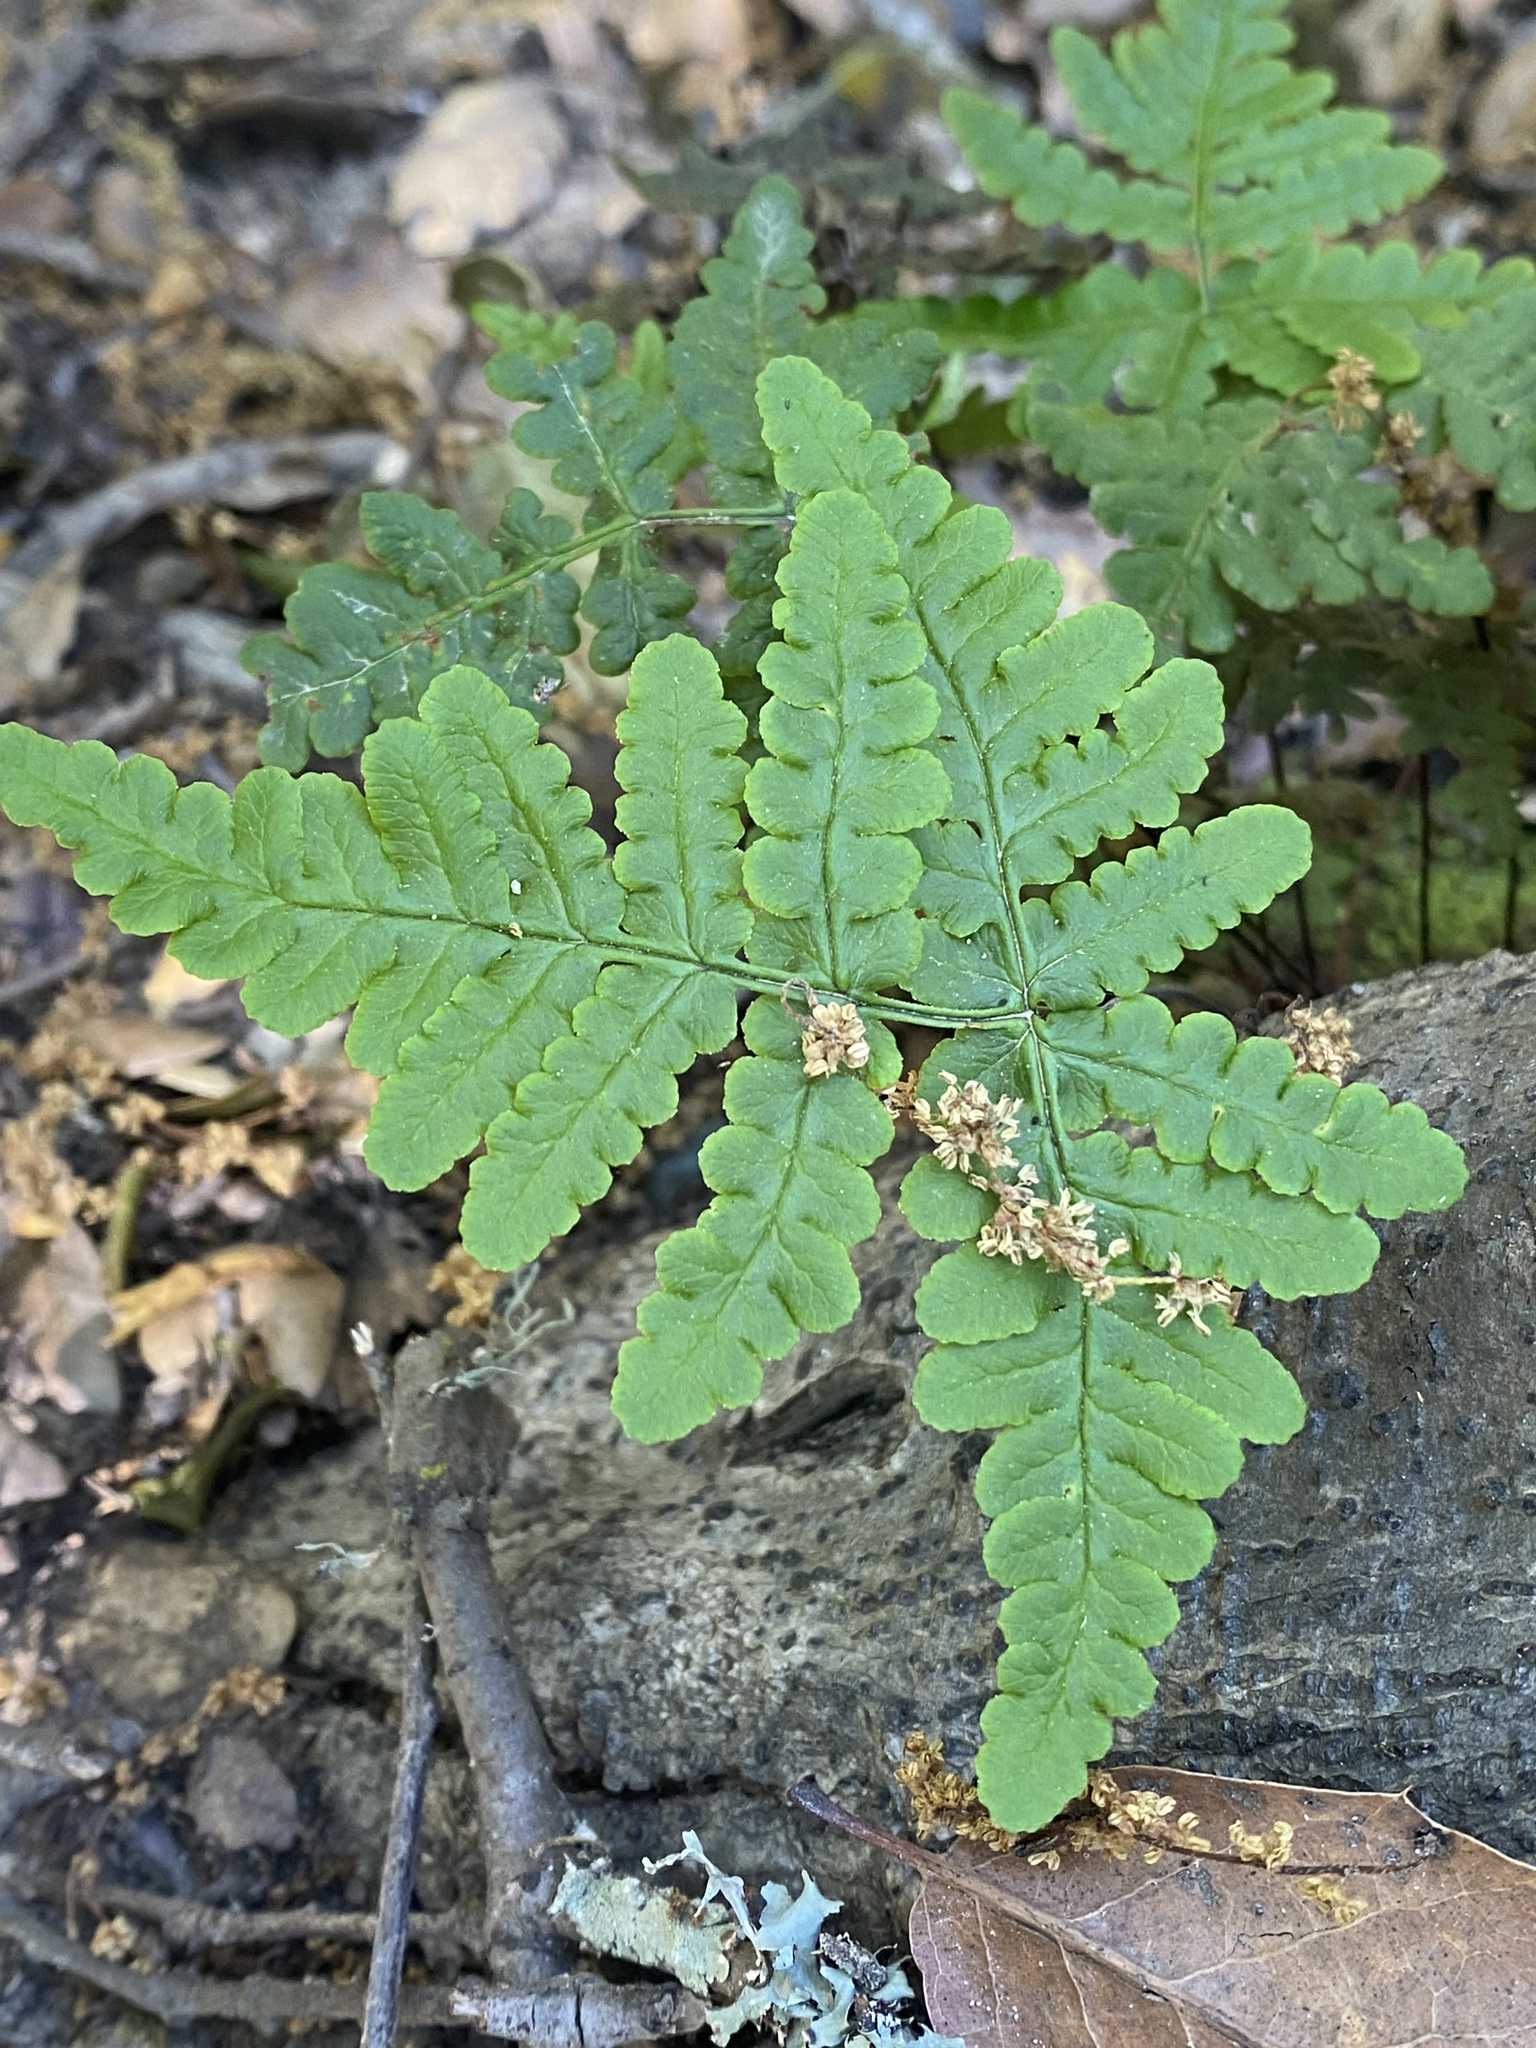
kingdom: Plantae
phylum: Tracheophyta
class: Polypodiopsida
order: Polypodiales
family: Pteridaceae
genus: Pentagramma
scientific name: Pentagramma triangularis
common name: Gold fern
